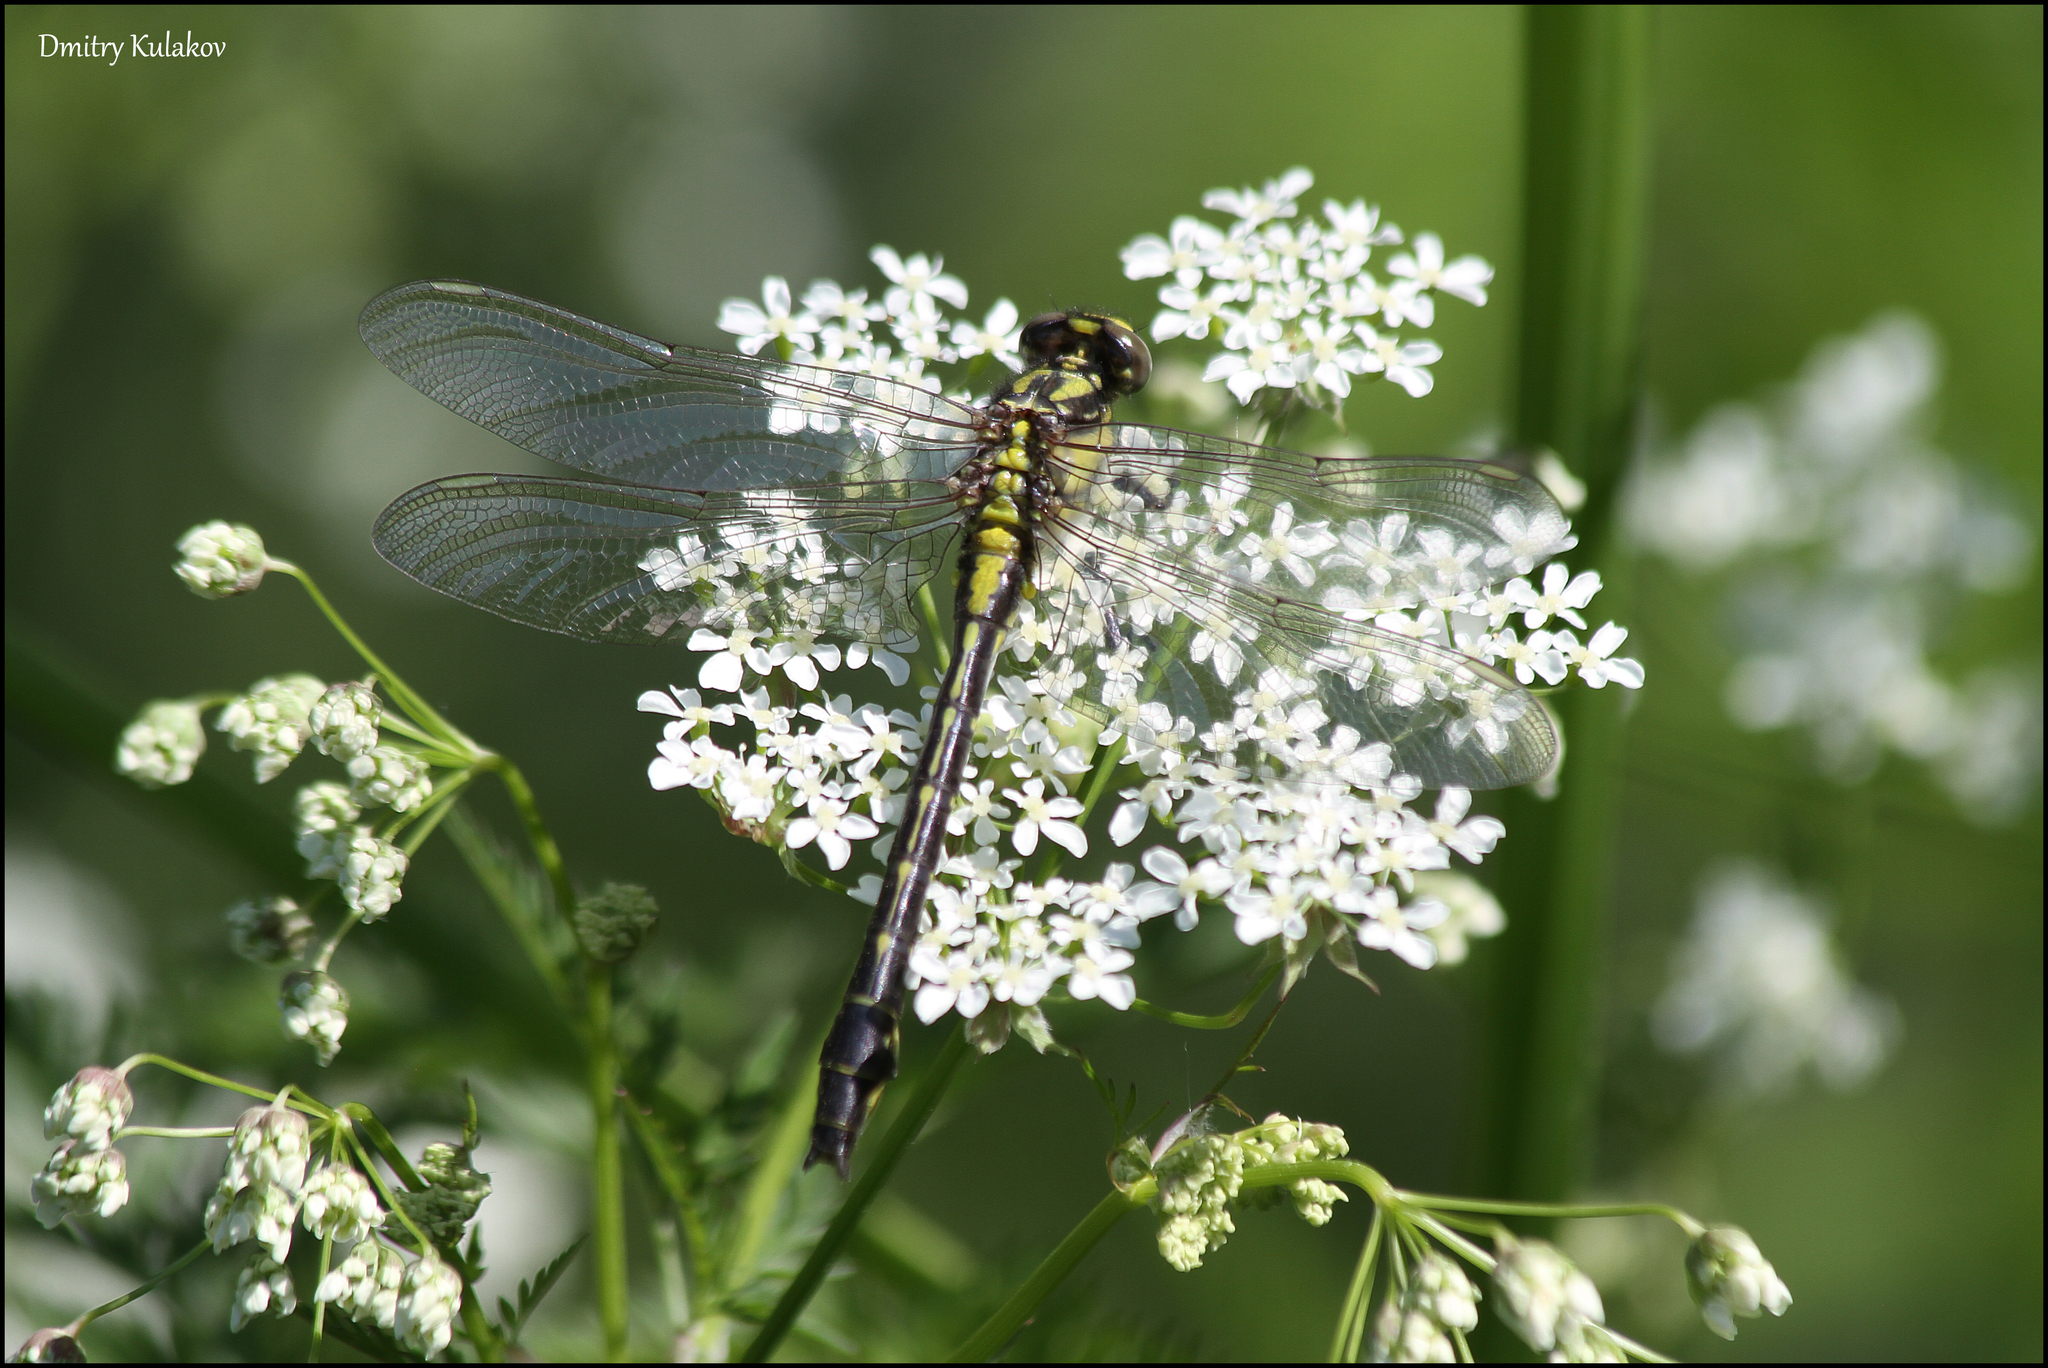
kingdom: Animalia
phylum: Arthropoda
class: Insecta
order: Odonata
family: Gomphidae
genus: Gomphus
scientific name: Gomphus vulgatissimus
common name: Club-tailed dragonfly
